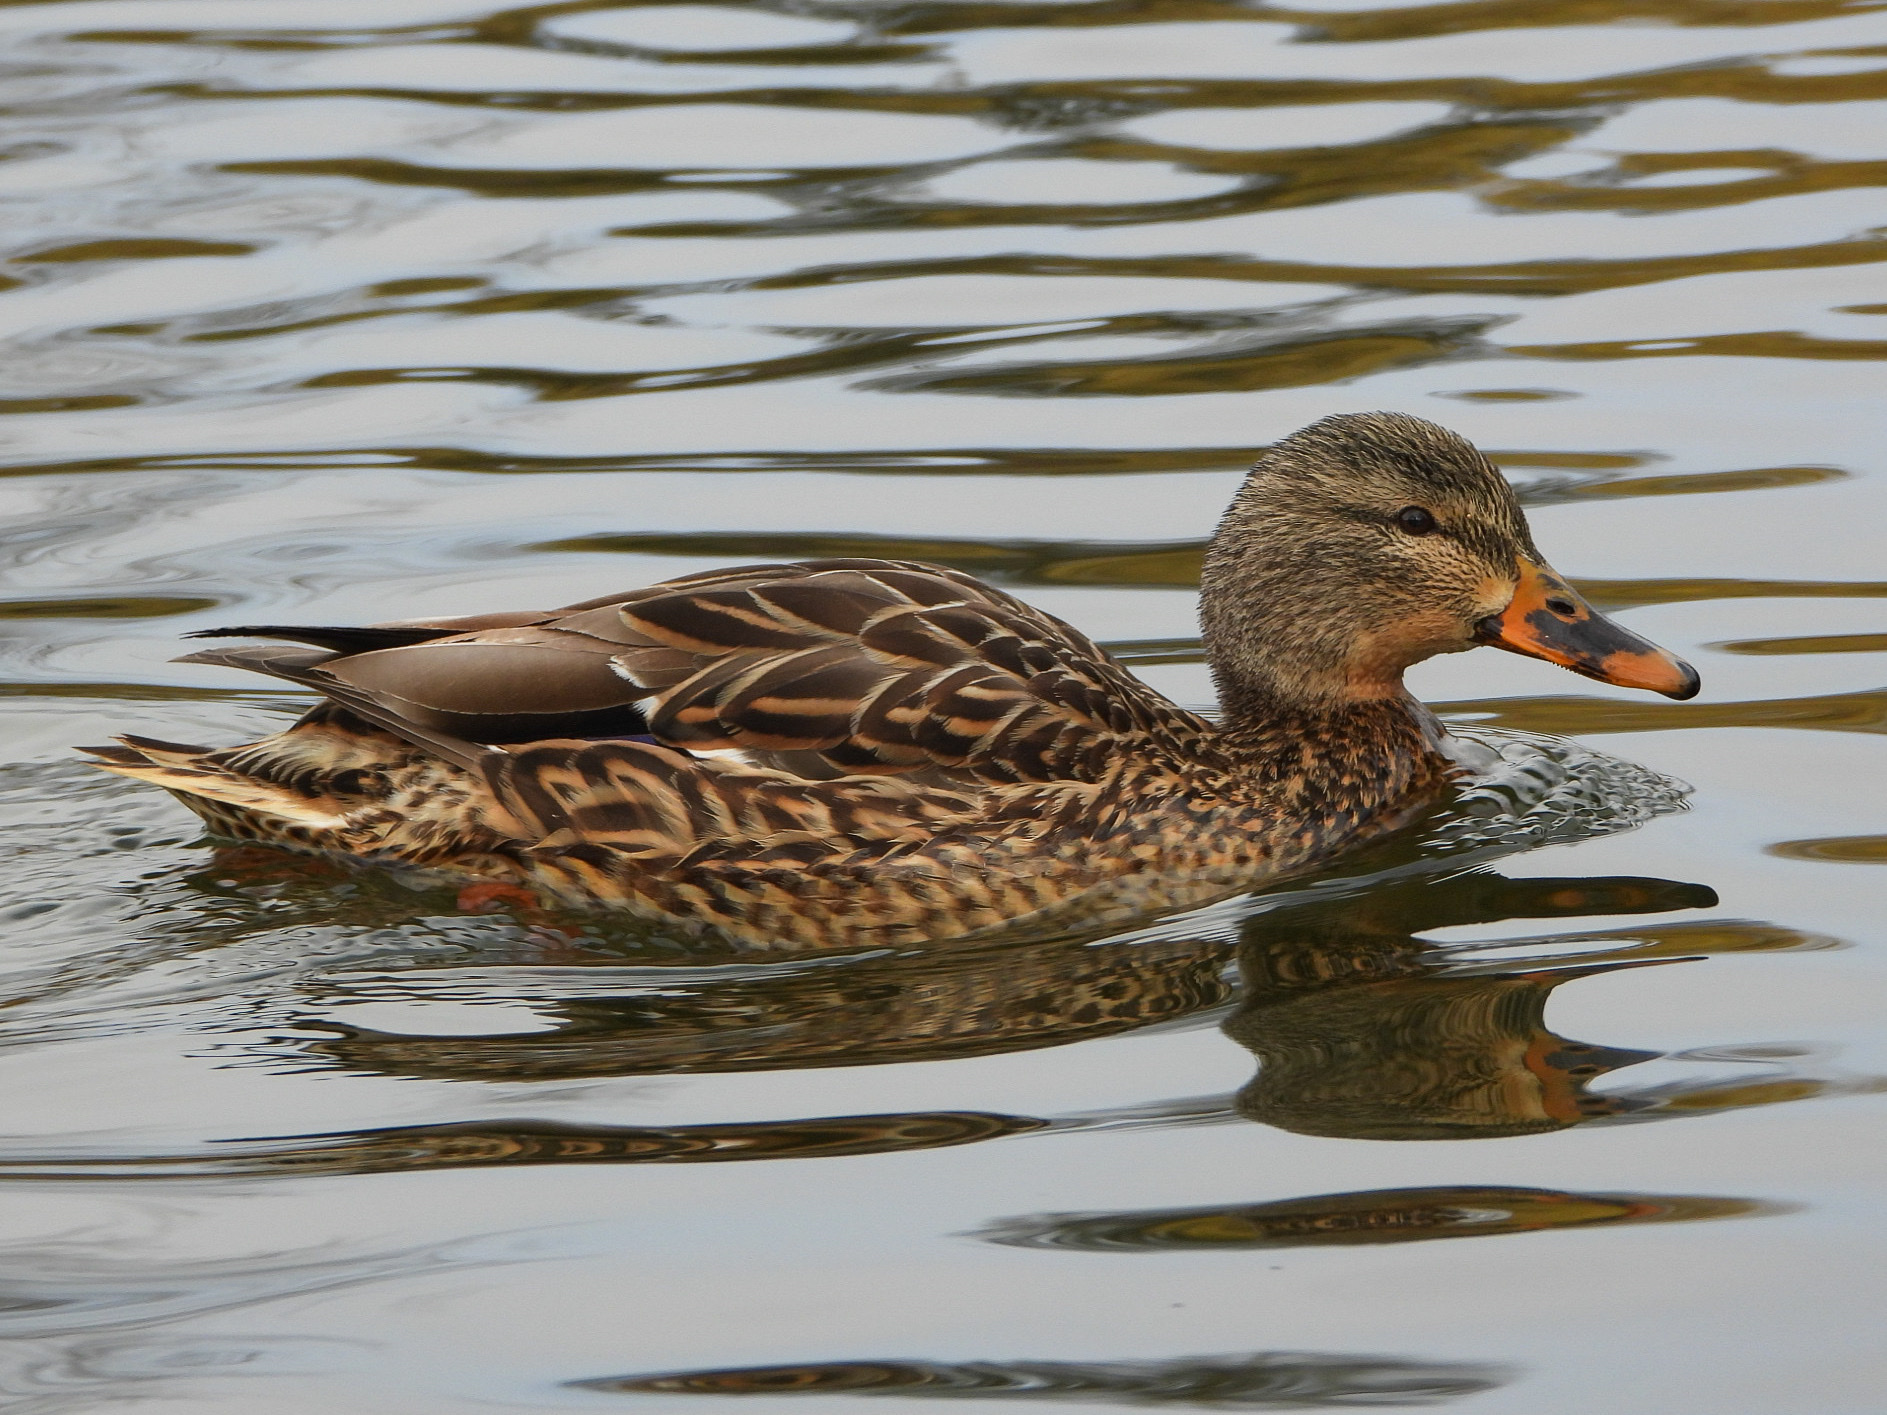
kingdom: Animalia
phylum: Chordata
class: Aves
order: Anseriformes
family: Anatidae
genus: Anas
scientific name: Anas platyrhynchos
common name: Mallard
